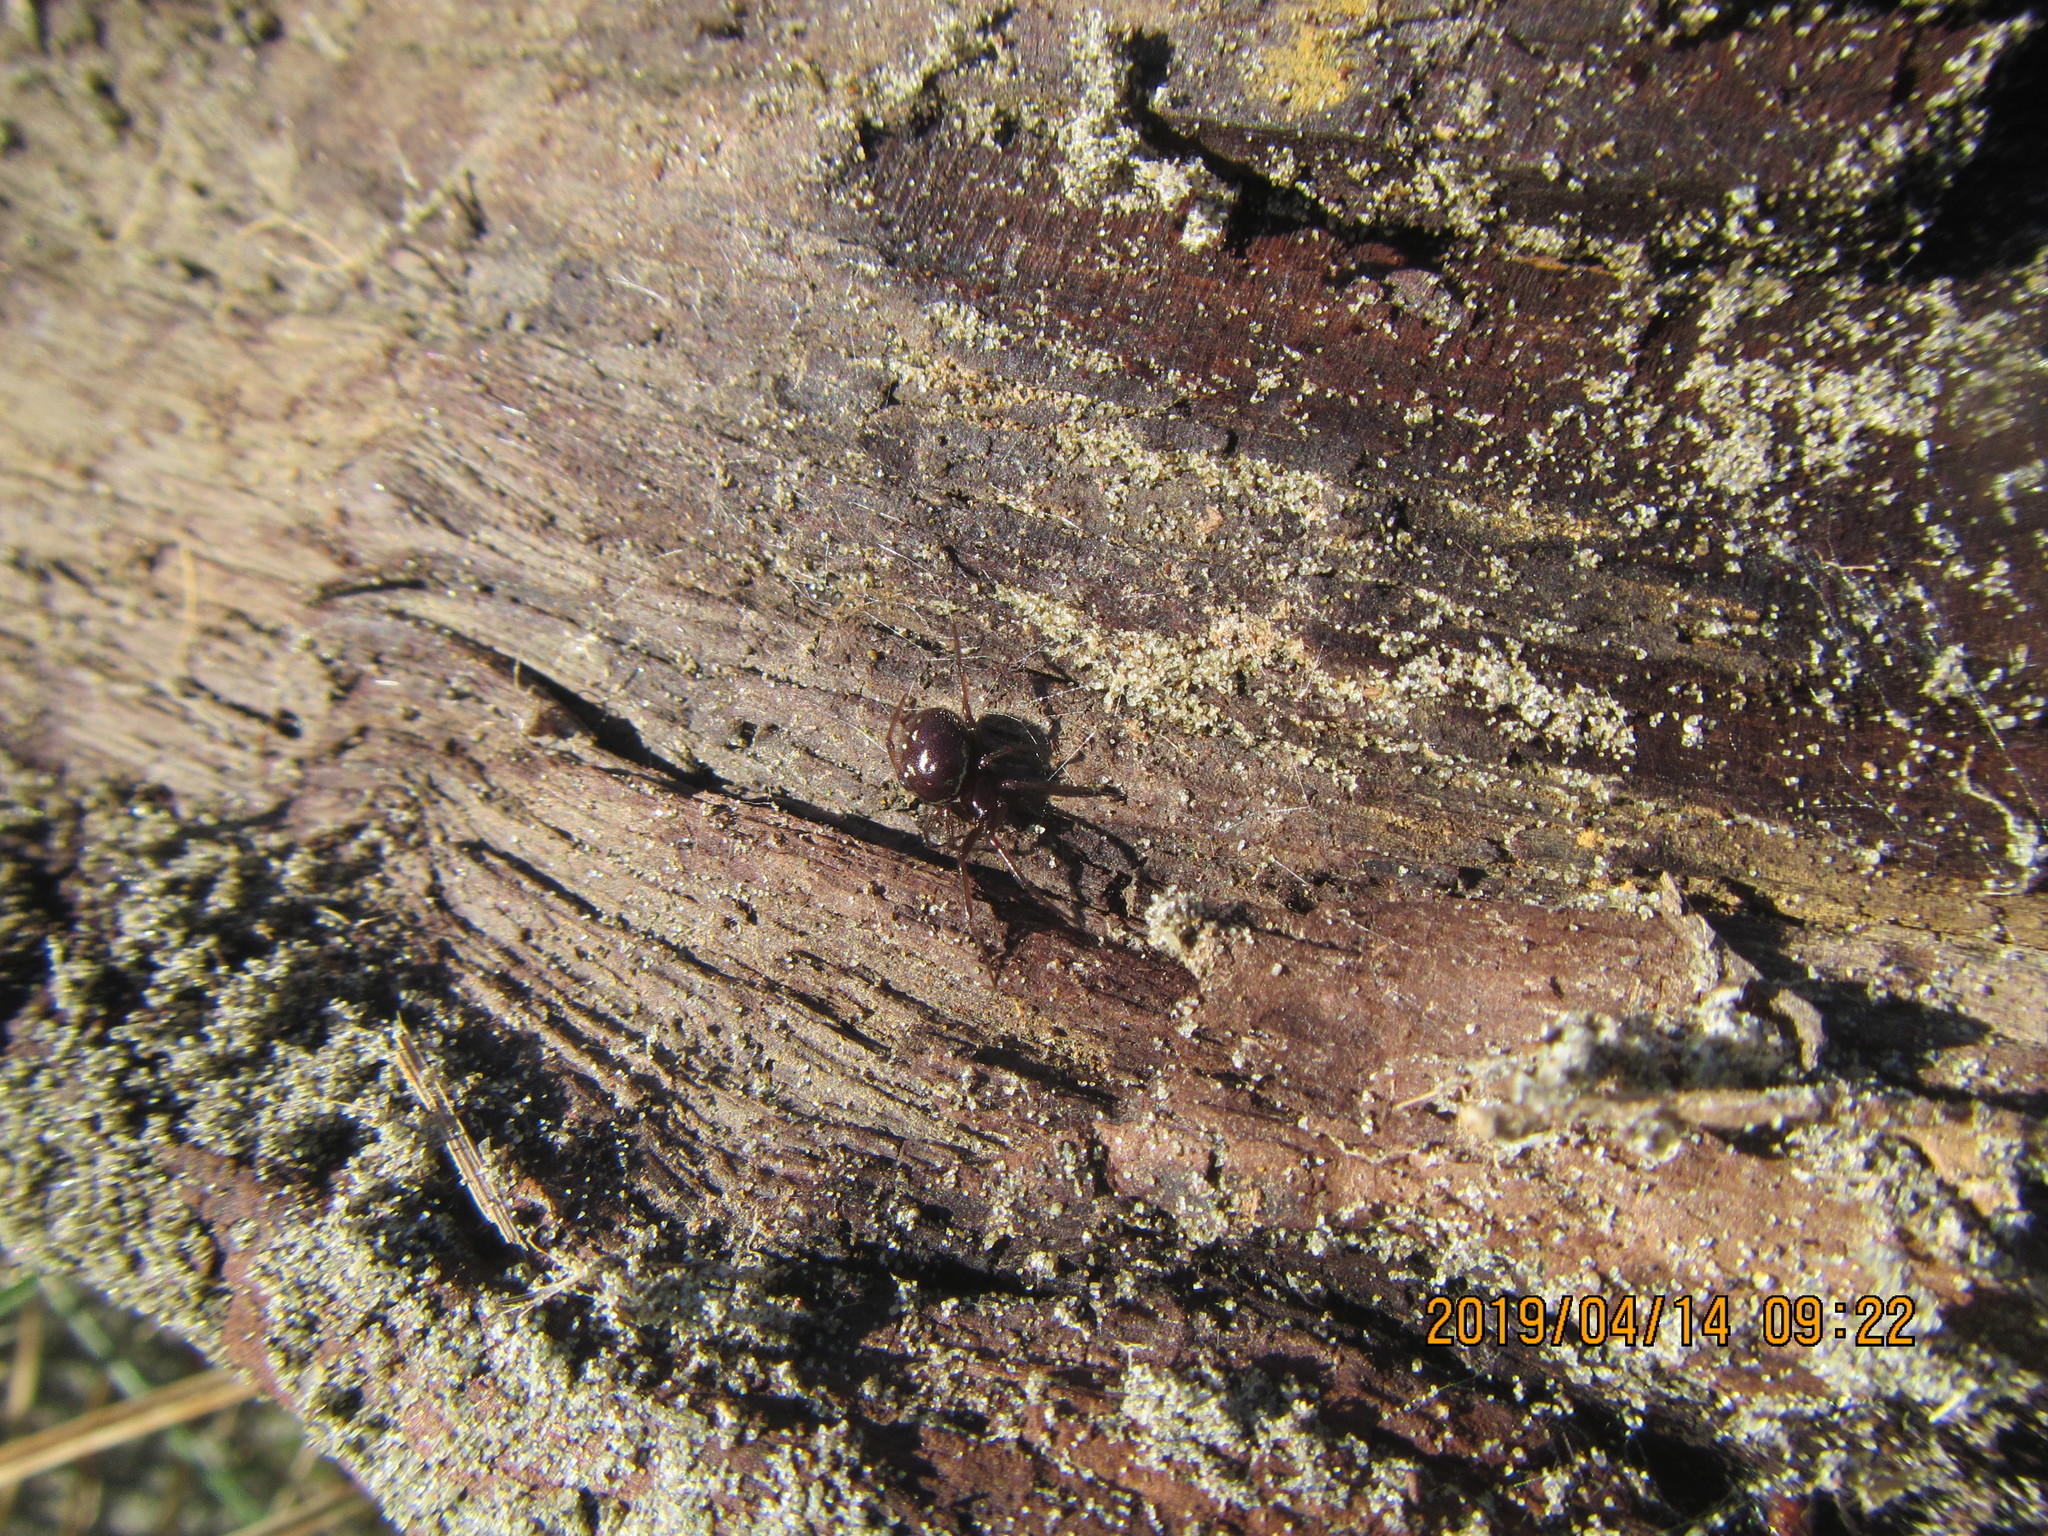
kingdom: Animalia
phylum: Arthropoda
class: Arachnida
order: Araneae
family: Theridiidae
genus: Steatoda
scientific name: Steatoda capensis
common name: Cobweb weaver
